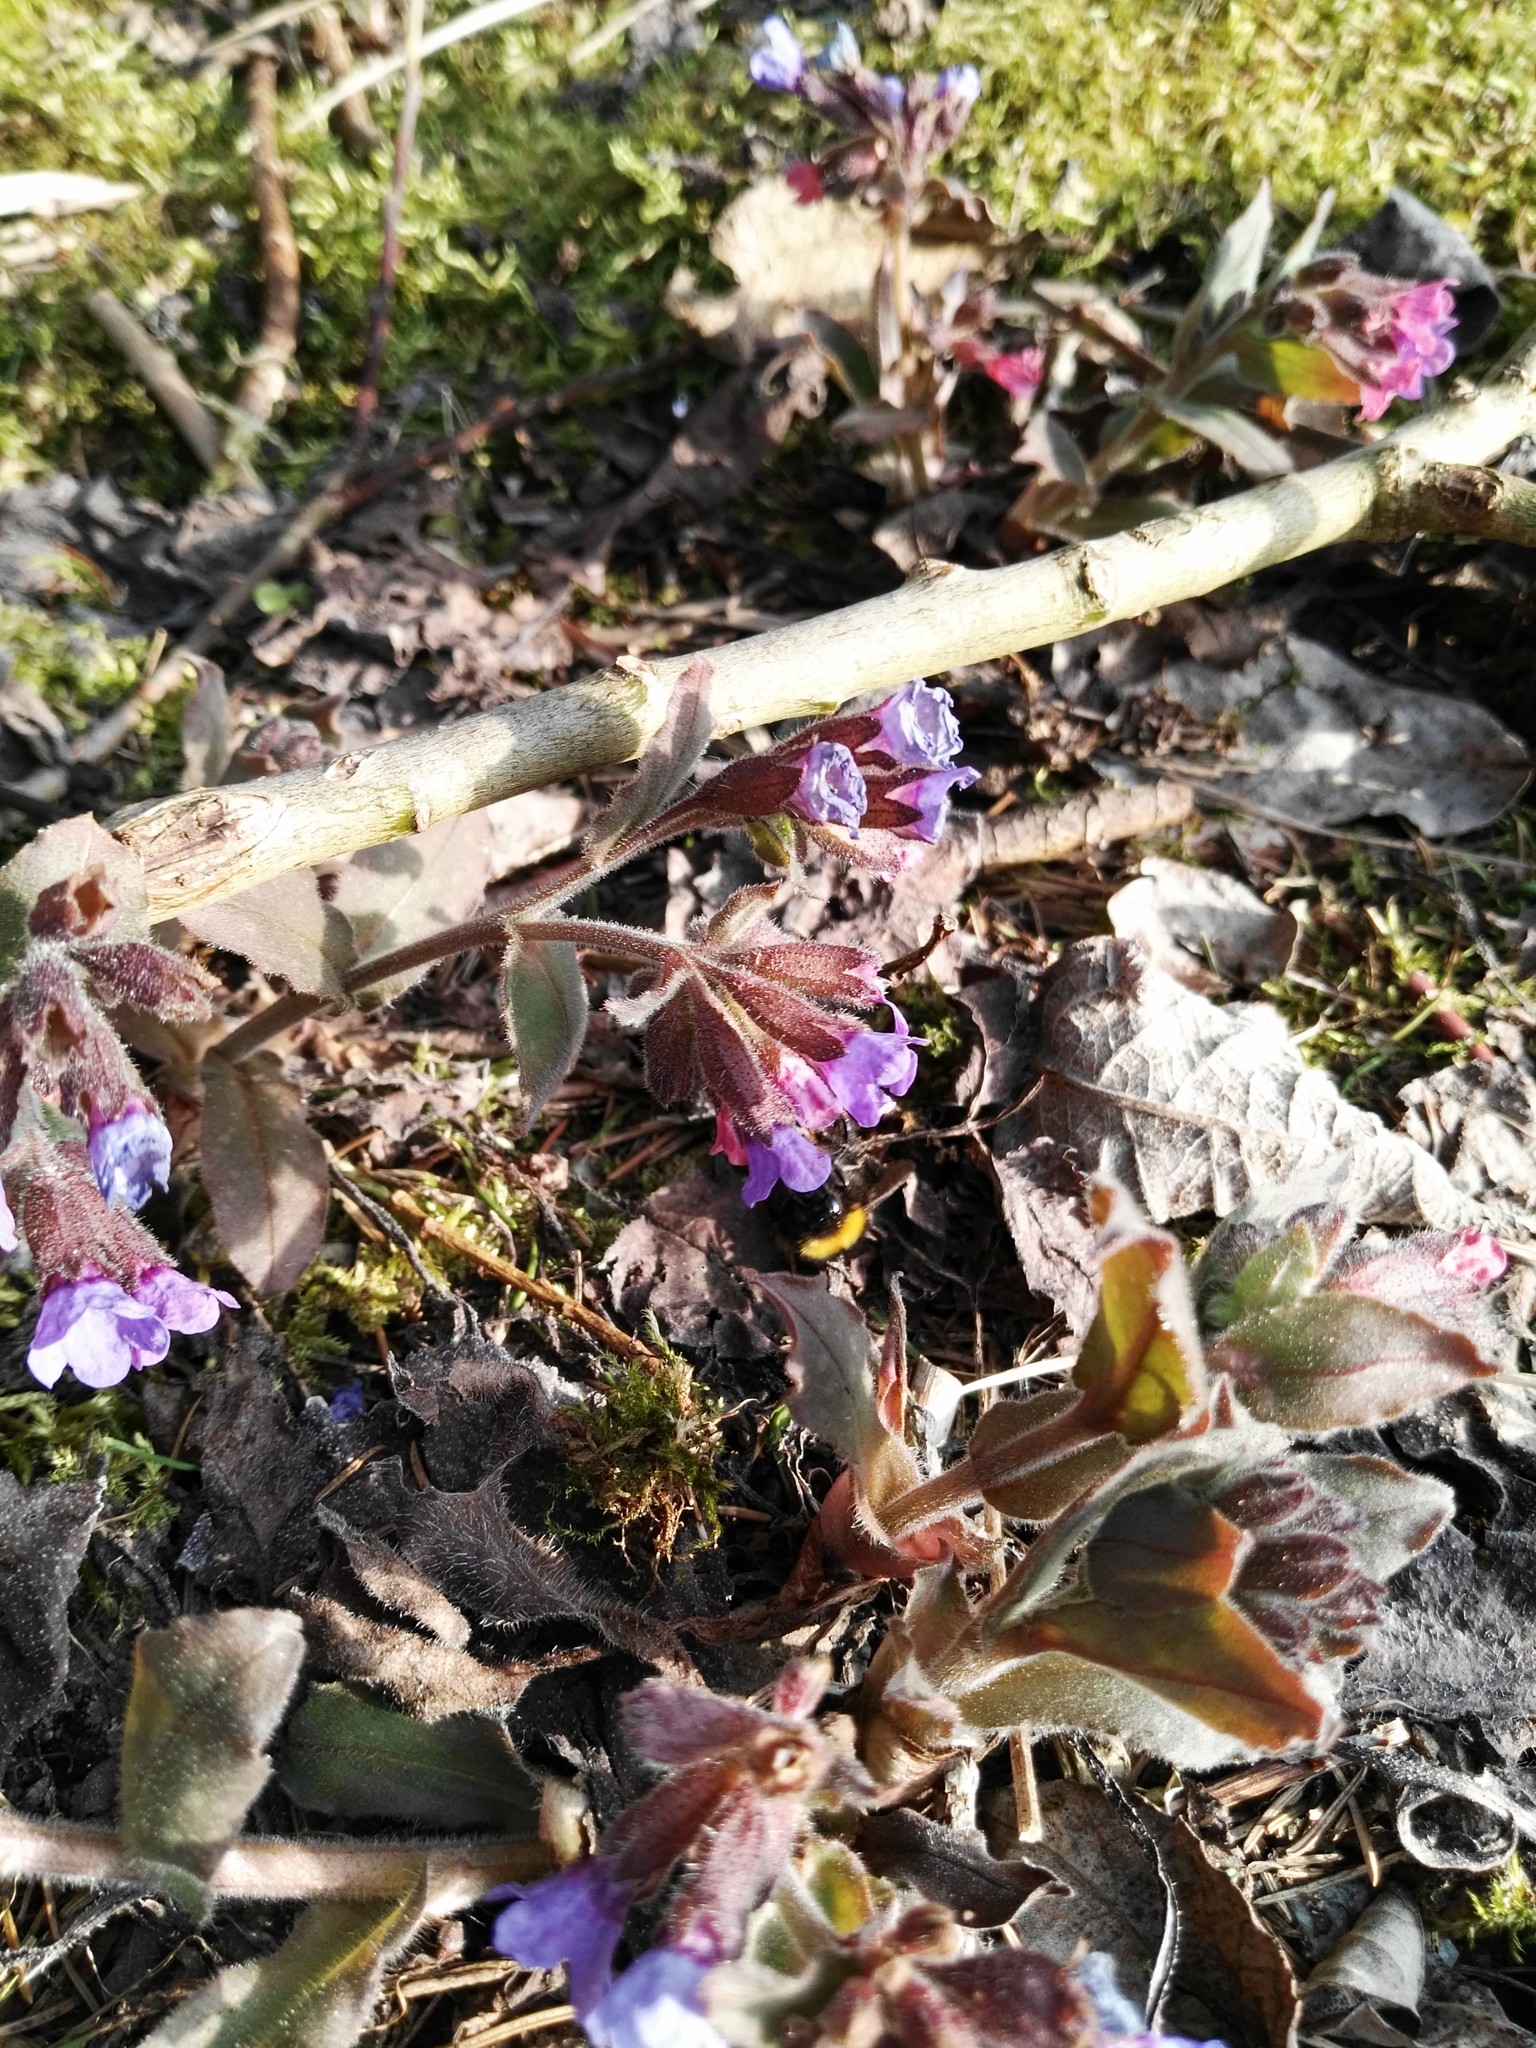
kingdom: Plantae
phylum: Tracheophyta
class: Magnoliopsida
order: Boraginales
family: Boraginaceae
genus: Pulmonaria
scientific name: Pulmonaria officinalis
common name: Lungwort
